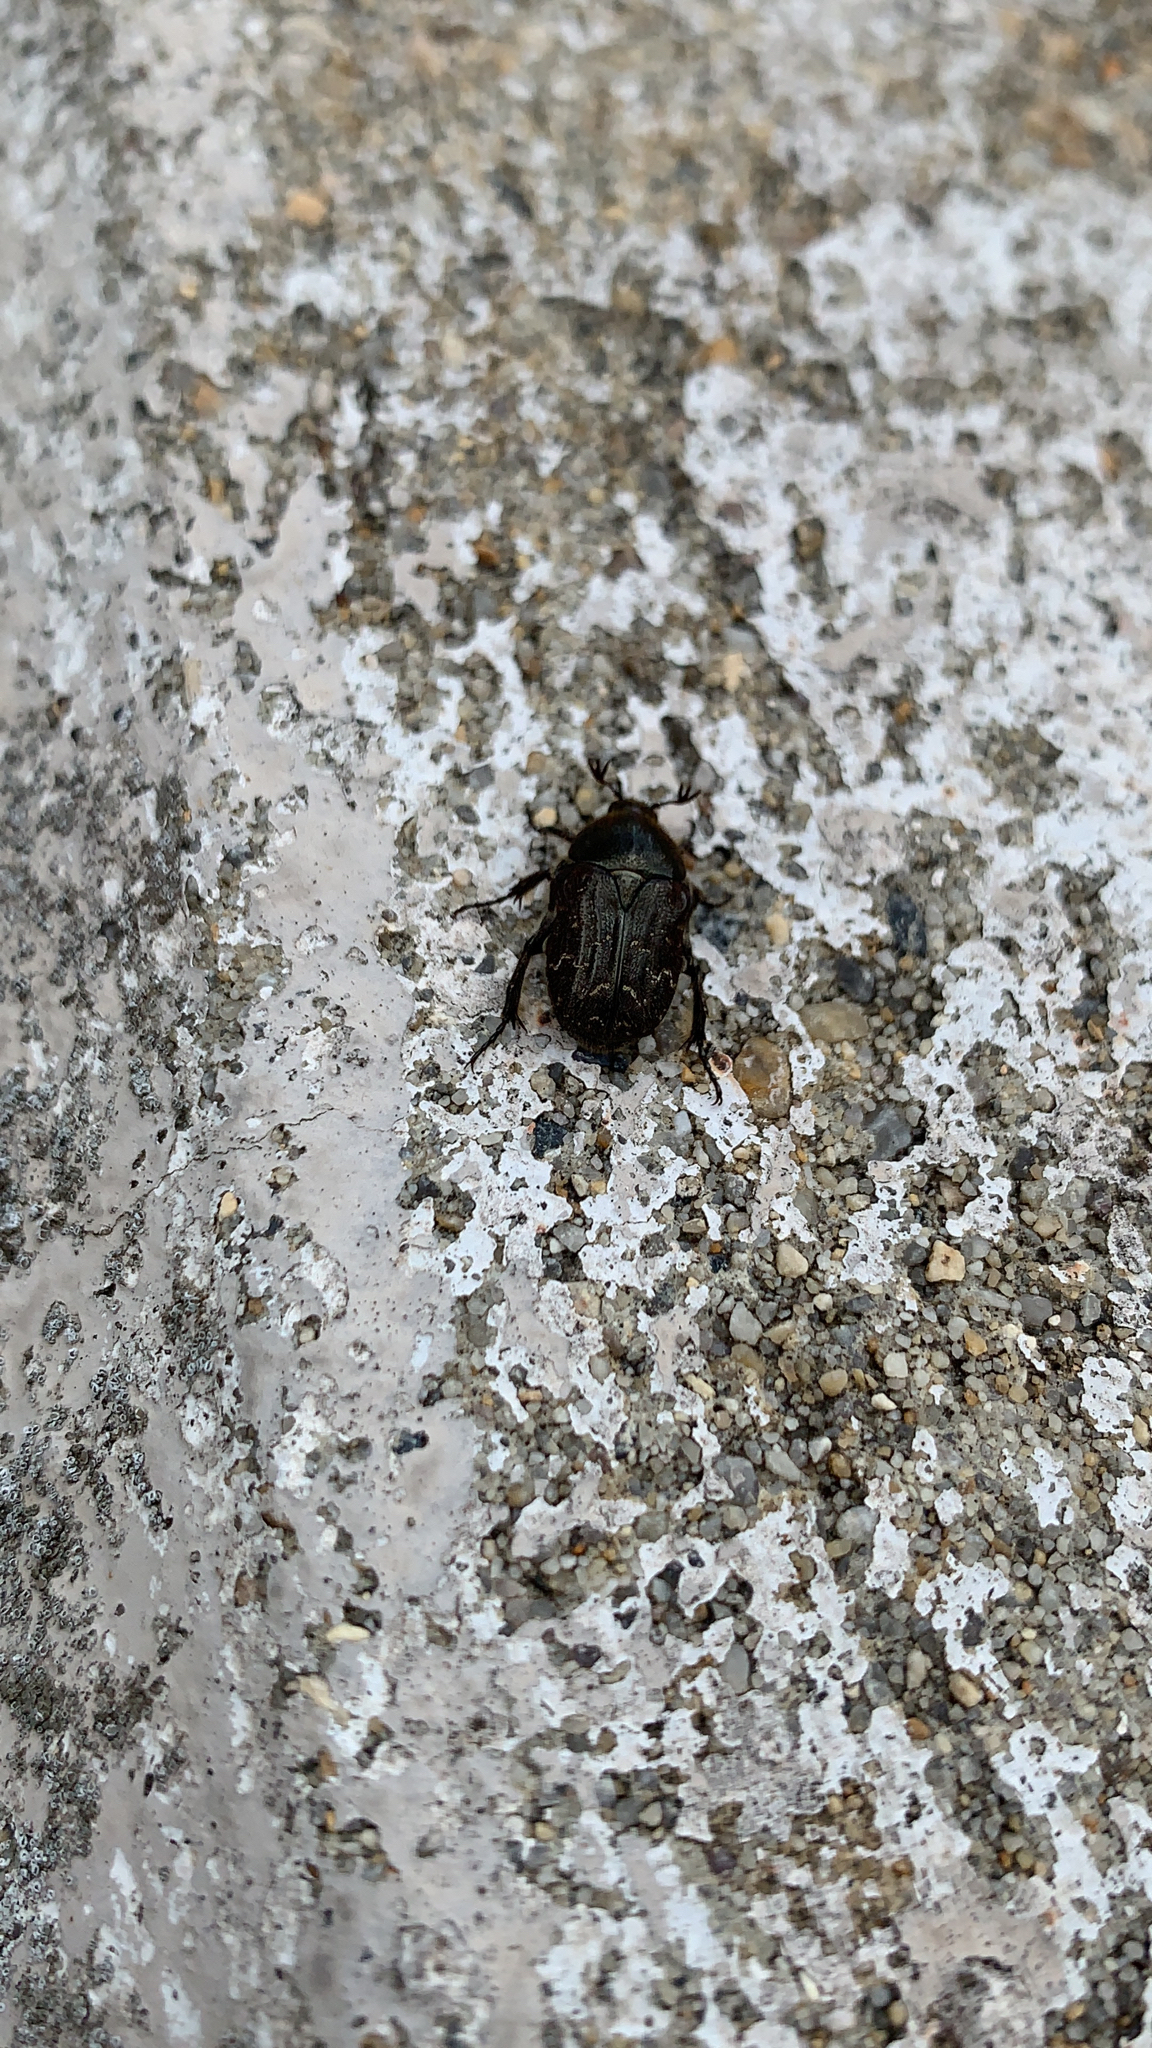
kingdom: Animalia
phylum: Arthropoda
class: Insecta
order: Coleoptera
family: Scarabaeidae
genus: Euphoria
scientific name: Euphoria sepulcralis
